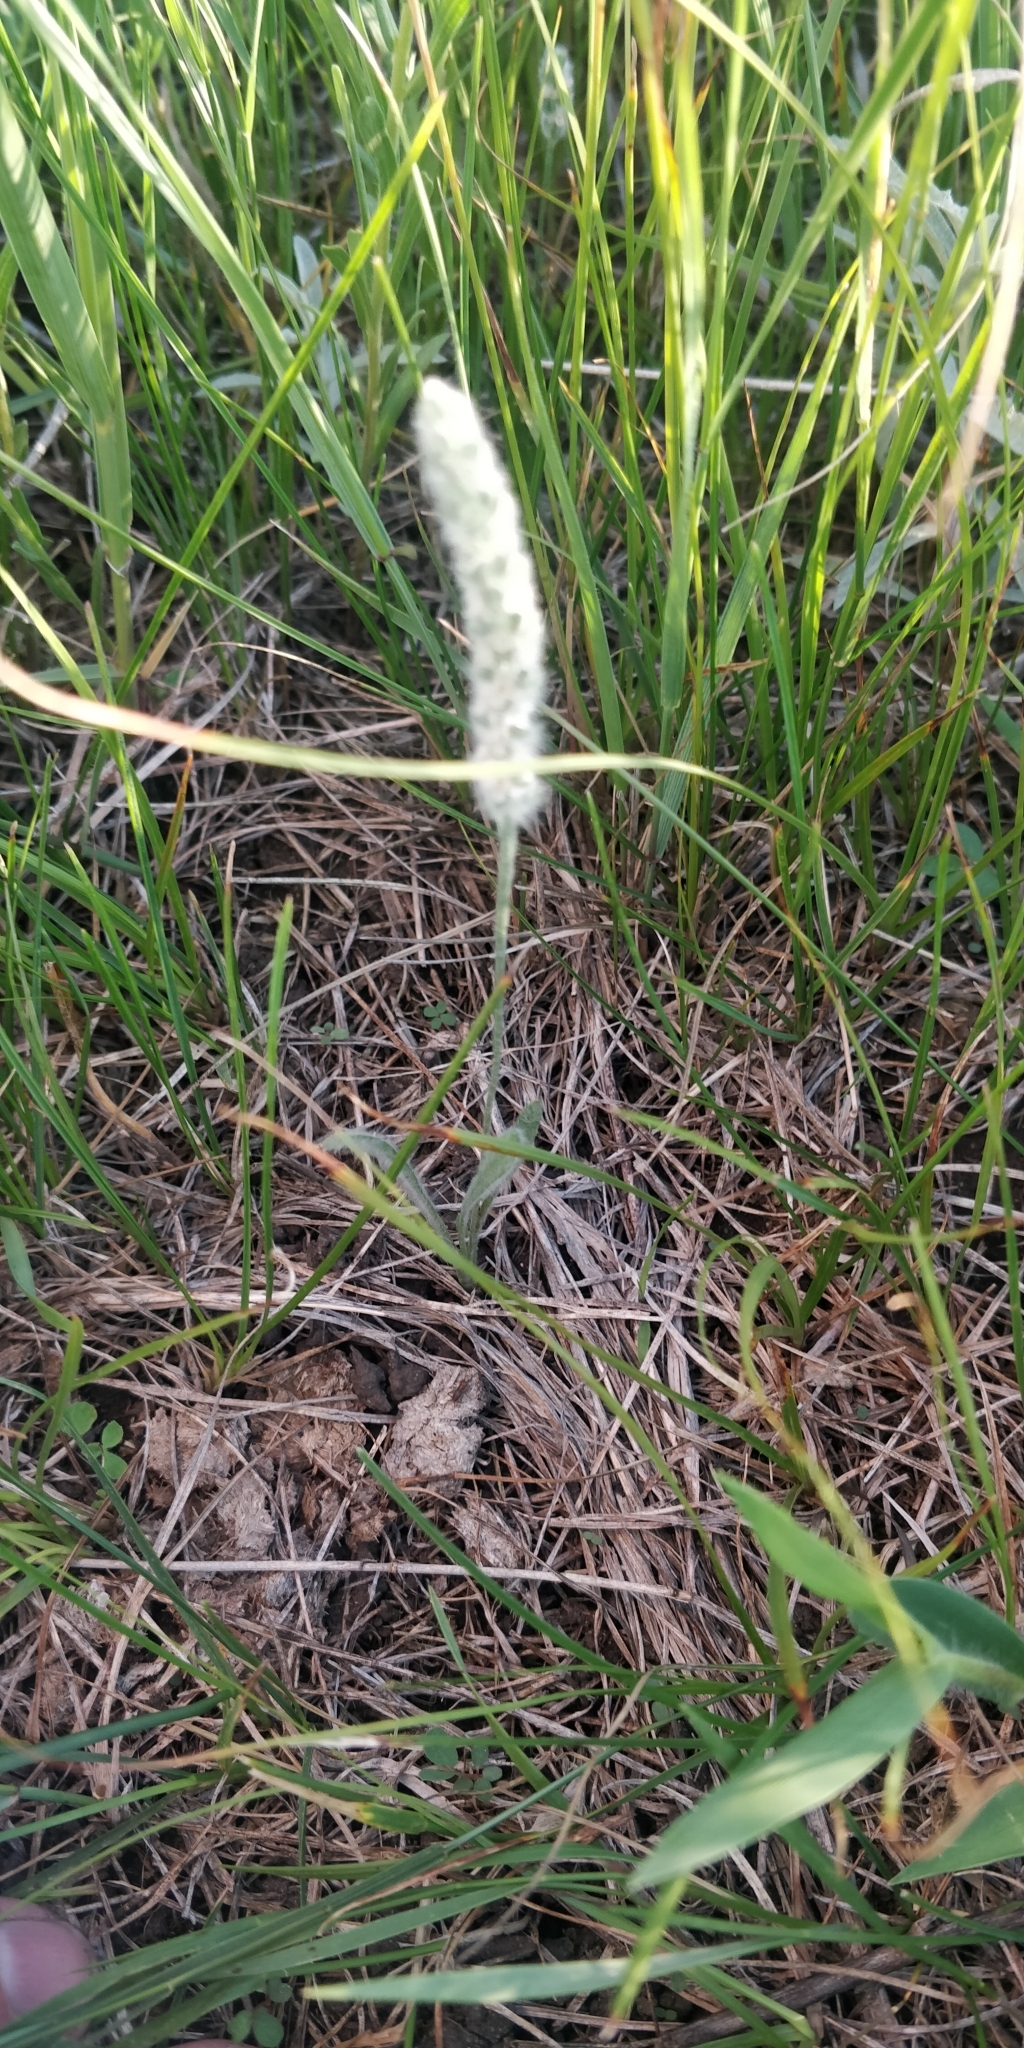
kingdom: Plantae
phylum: Tracheophyta
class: Magnoliopsida
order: Lamiales
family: Plantaginaceae
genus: Plantago
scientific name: Plantago patagonica
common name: Patagonia indian-wheat
